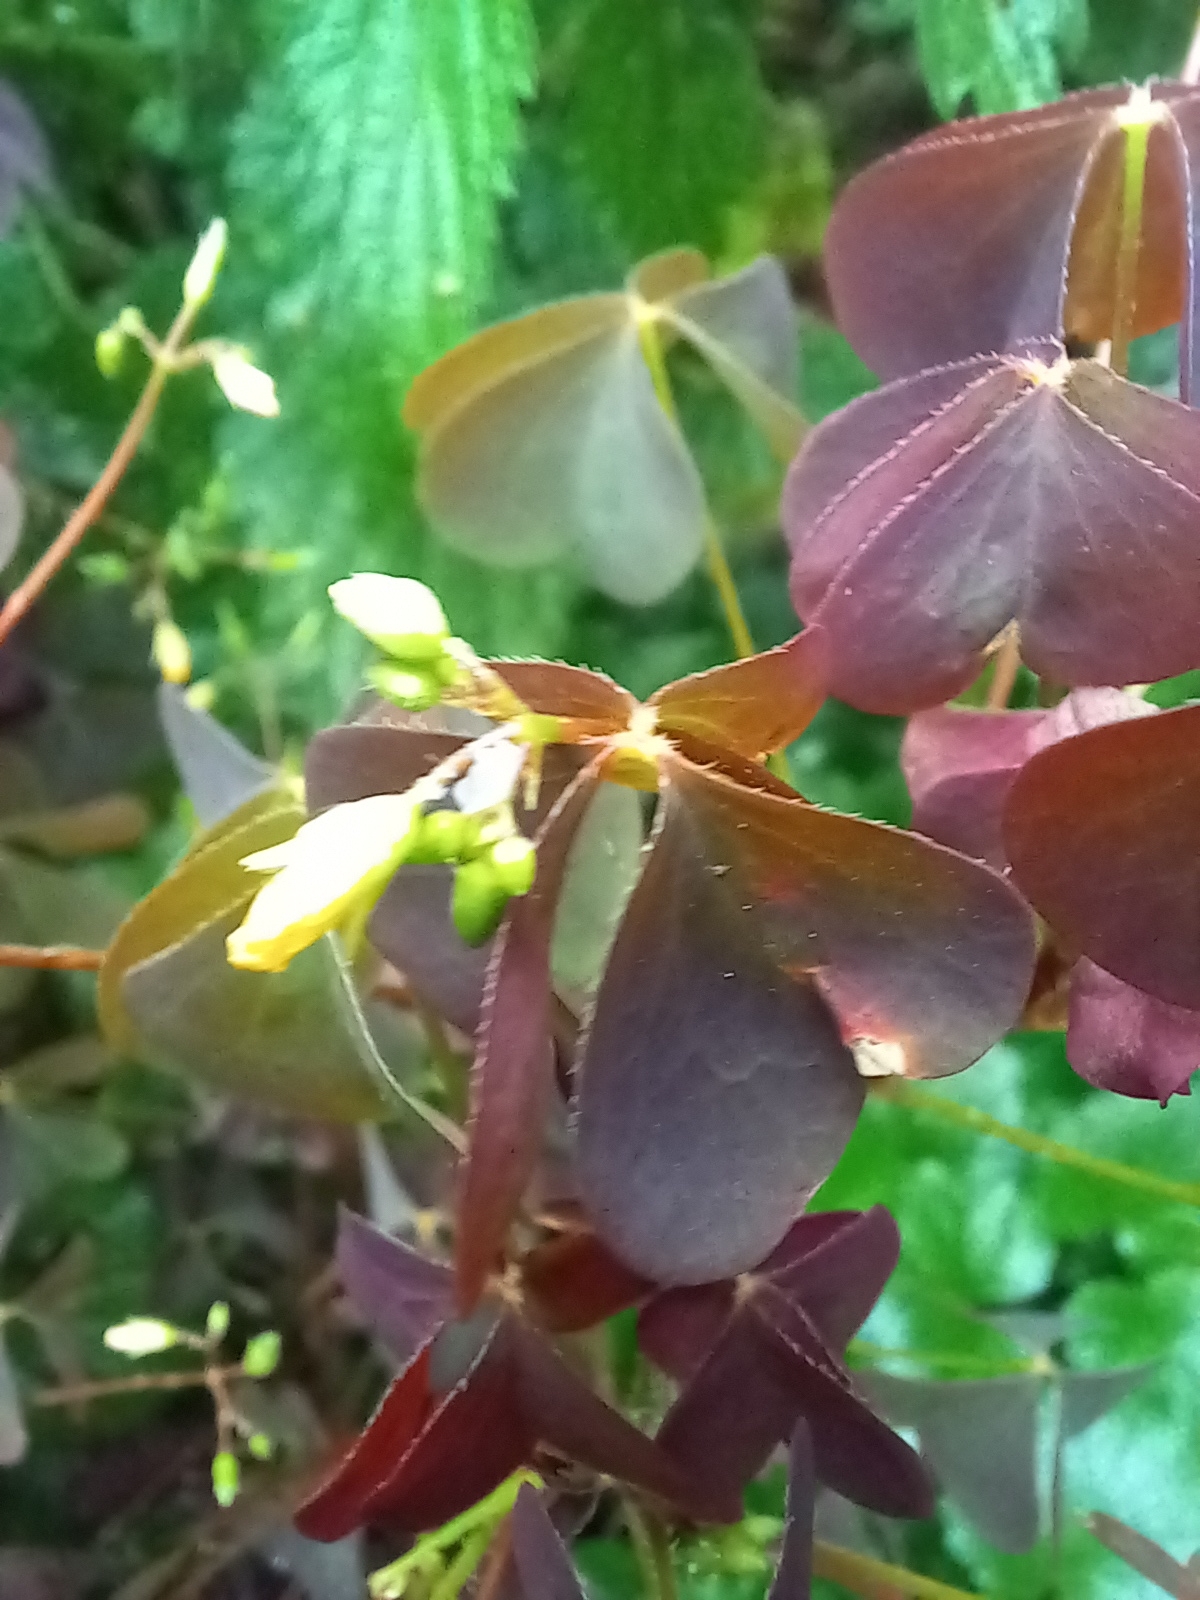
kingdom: Plantae
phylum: Tracheophyta
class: Magnoliopsida
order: Oxalidales
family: Oxalidaceae
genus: Oxalis
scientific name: Oxalis stricta
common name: Upright yellow-sorrel
